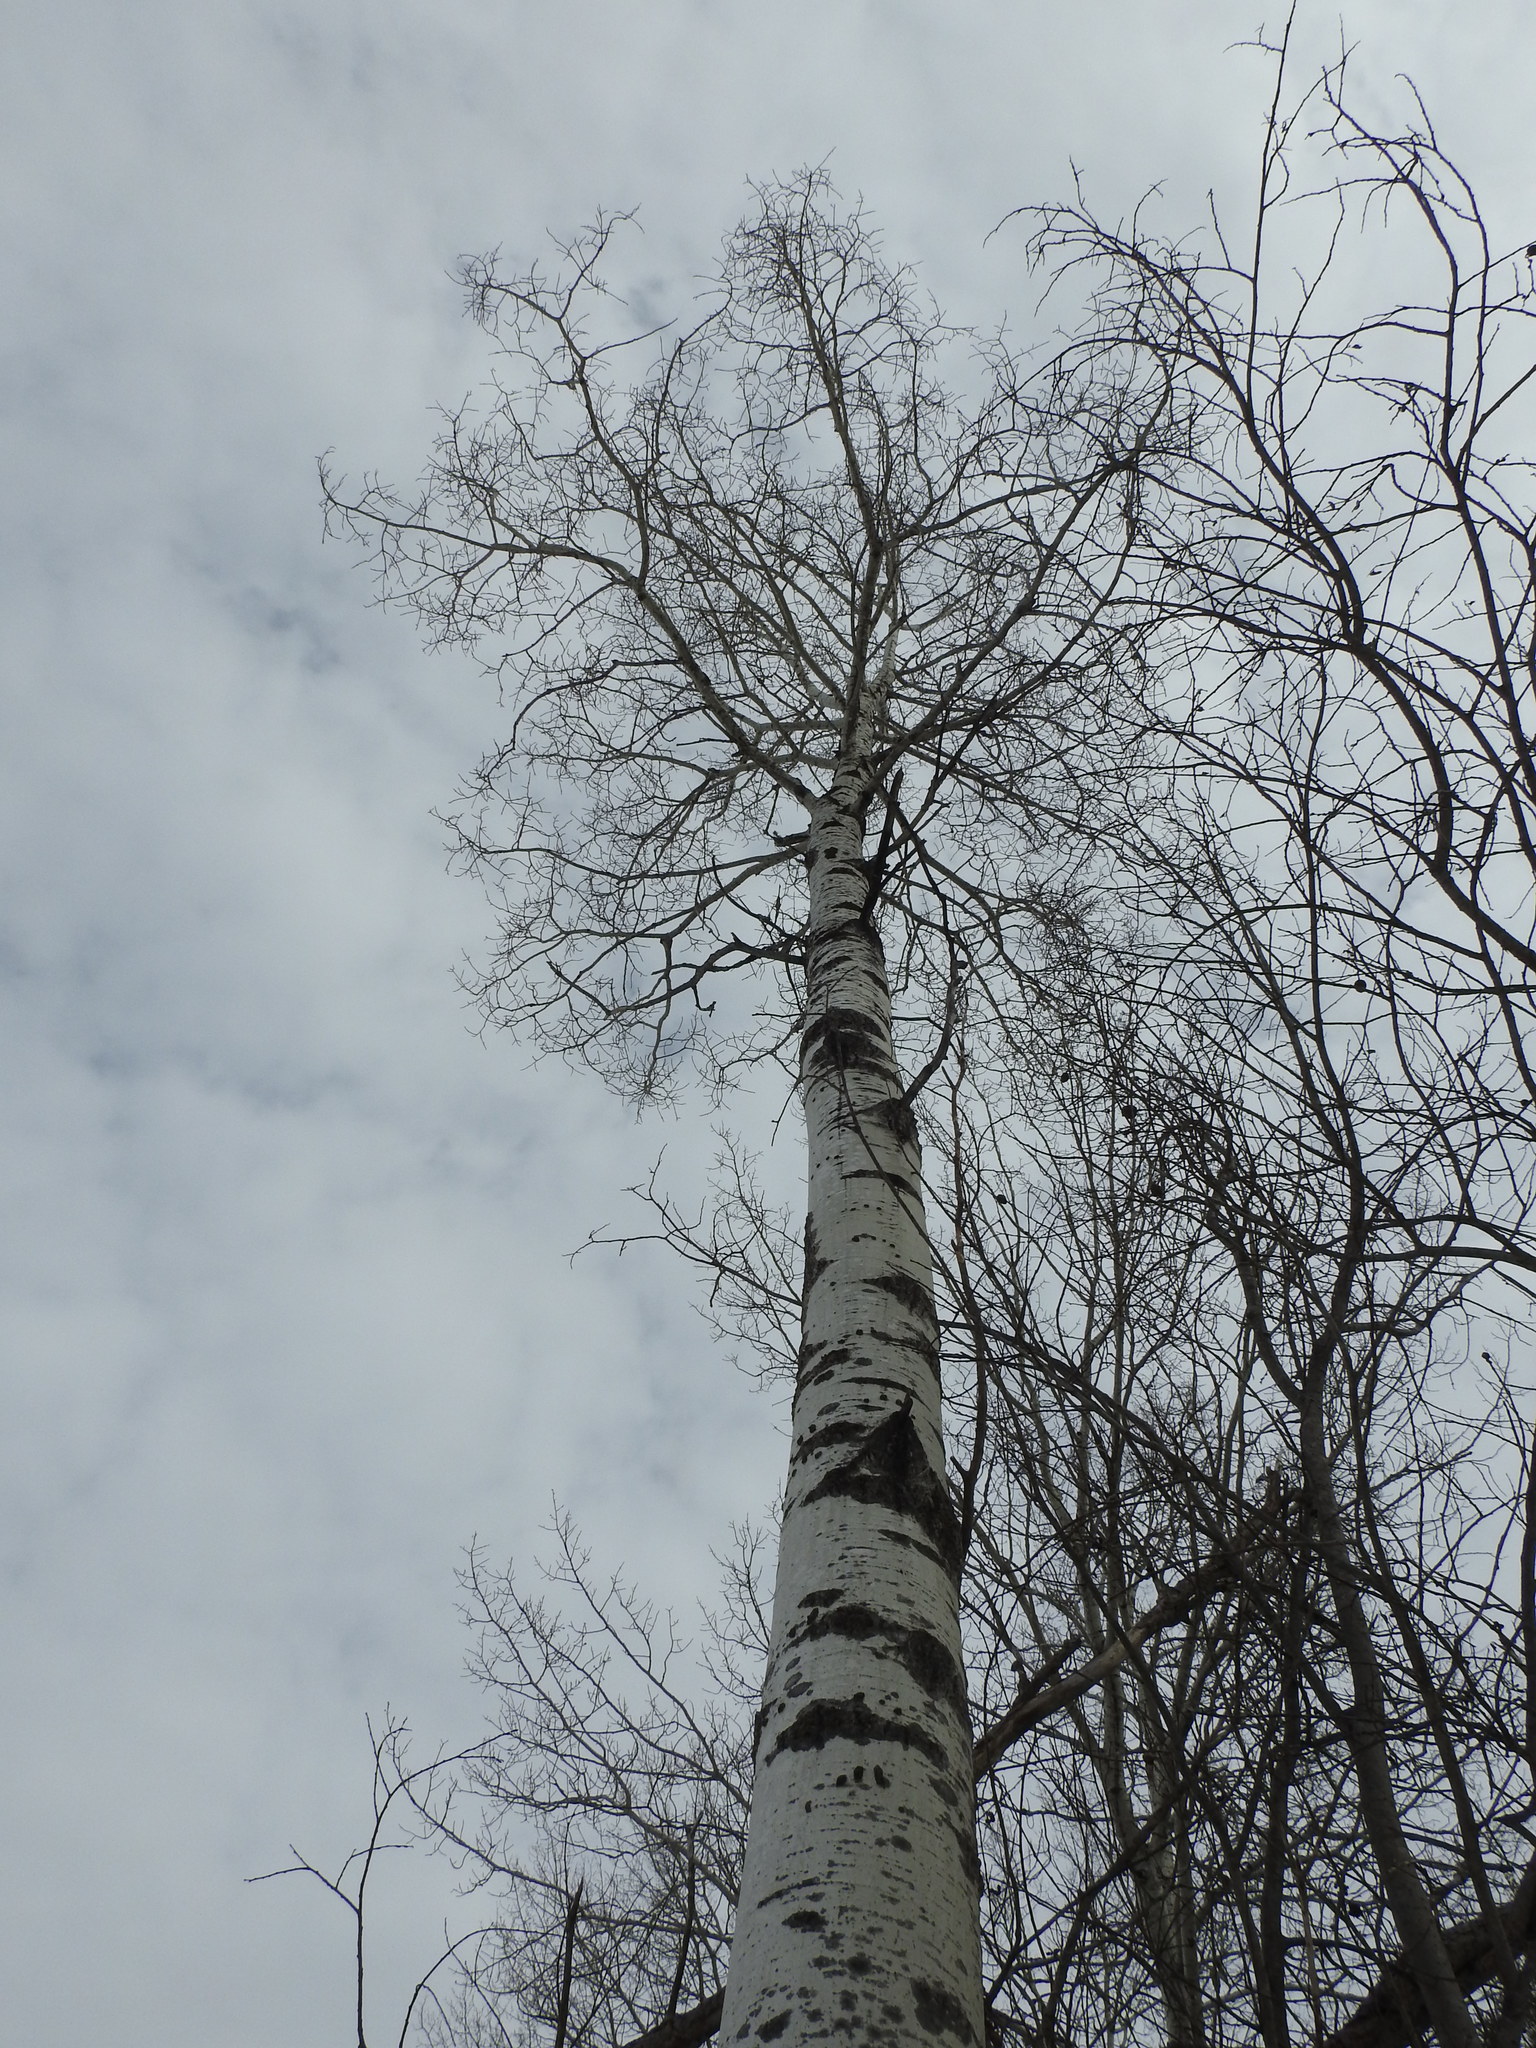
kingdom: Plantae
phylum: Tracheophyta
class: Magnoliopsida
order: Malpighiales
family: Salicaceae
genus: Populus
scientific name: Populus tremuloides
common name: Quaking aspen
